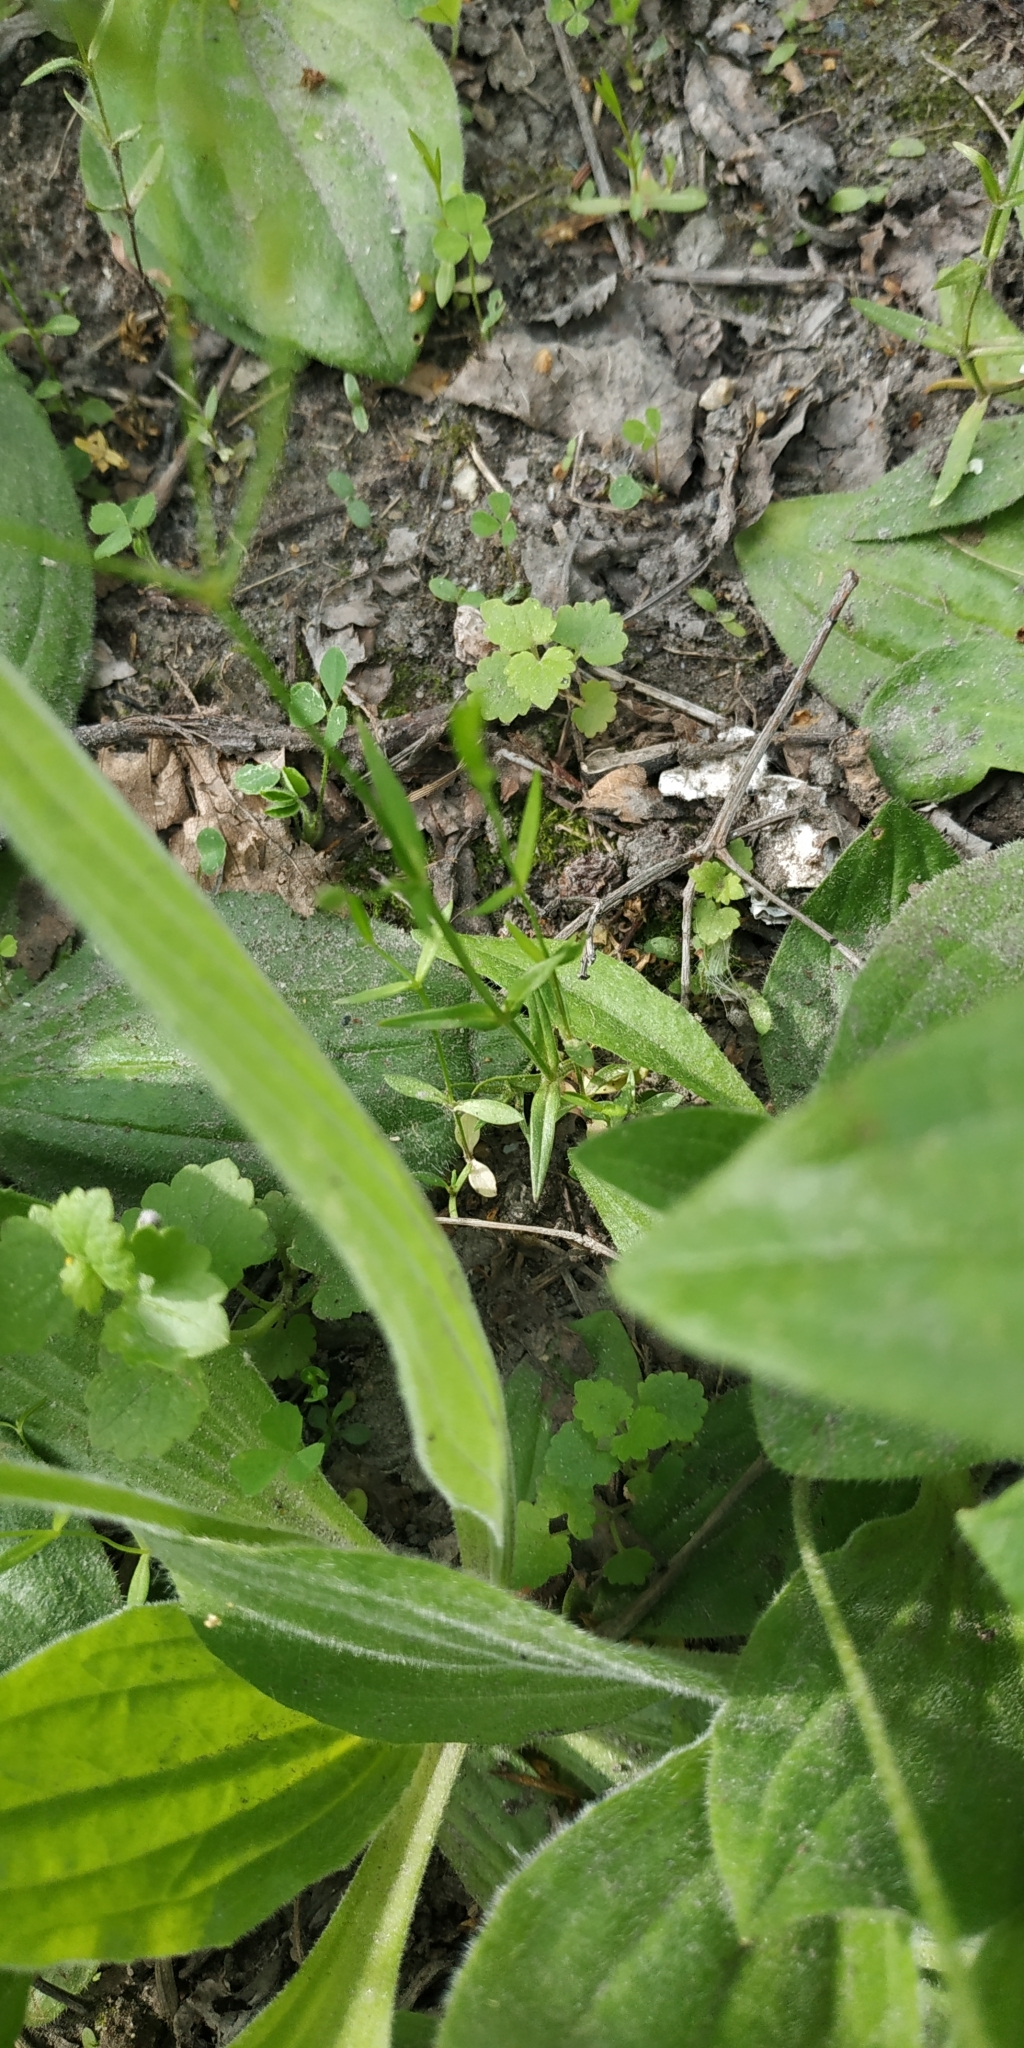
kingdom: Plantae
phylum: Tracheophyta
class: Magnoliopsida
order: Caryophyllales
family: Caryophyllaceae
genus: Stellaria
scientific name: Stellaria graminea
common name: Grass-like starwort
